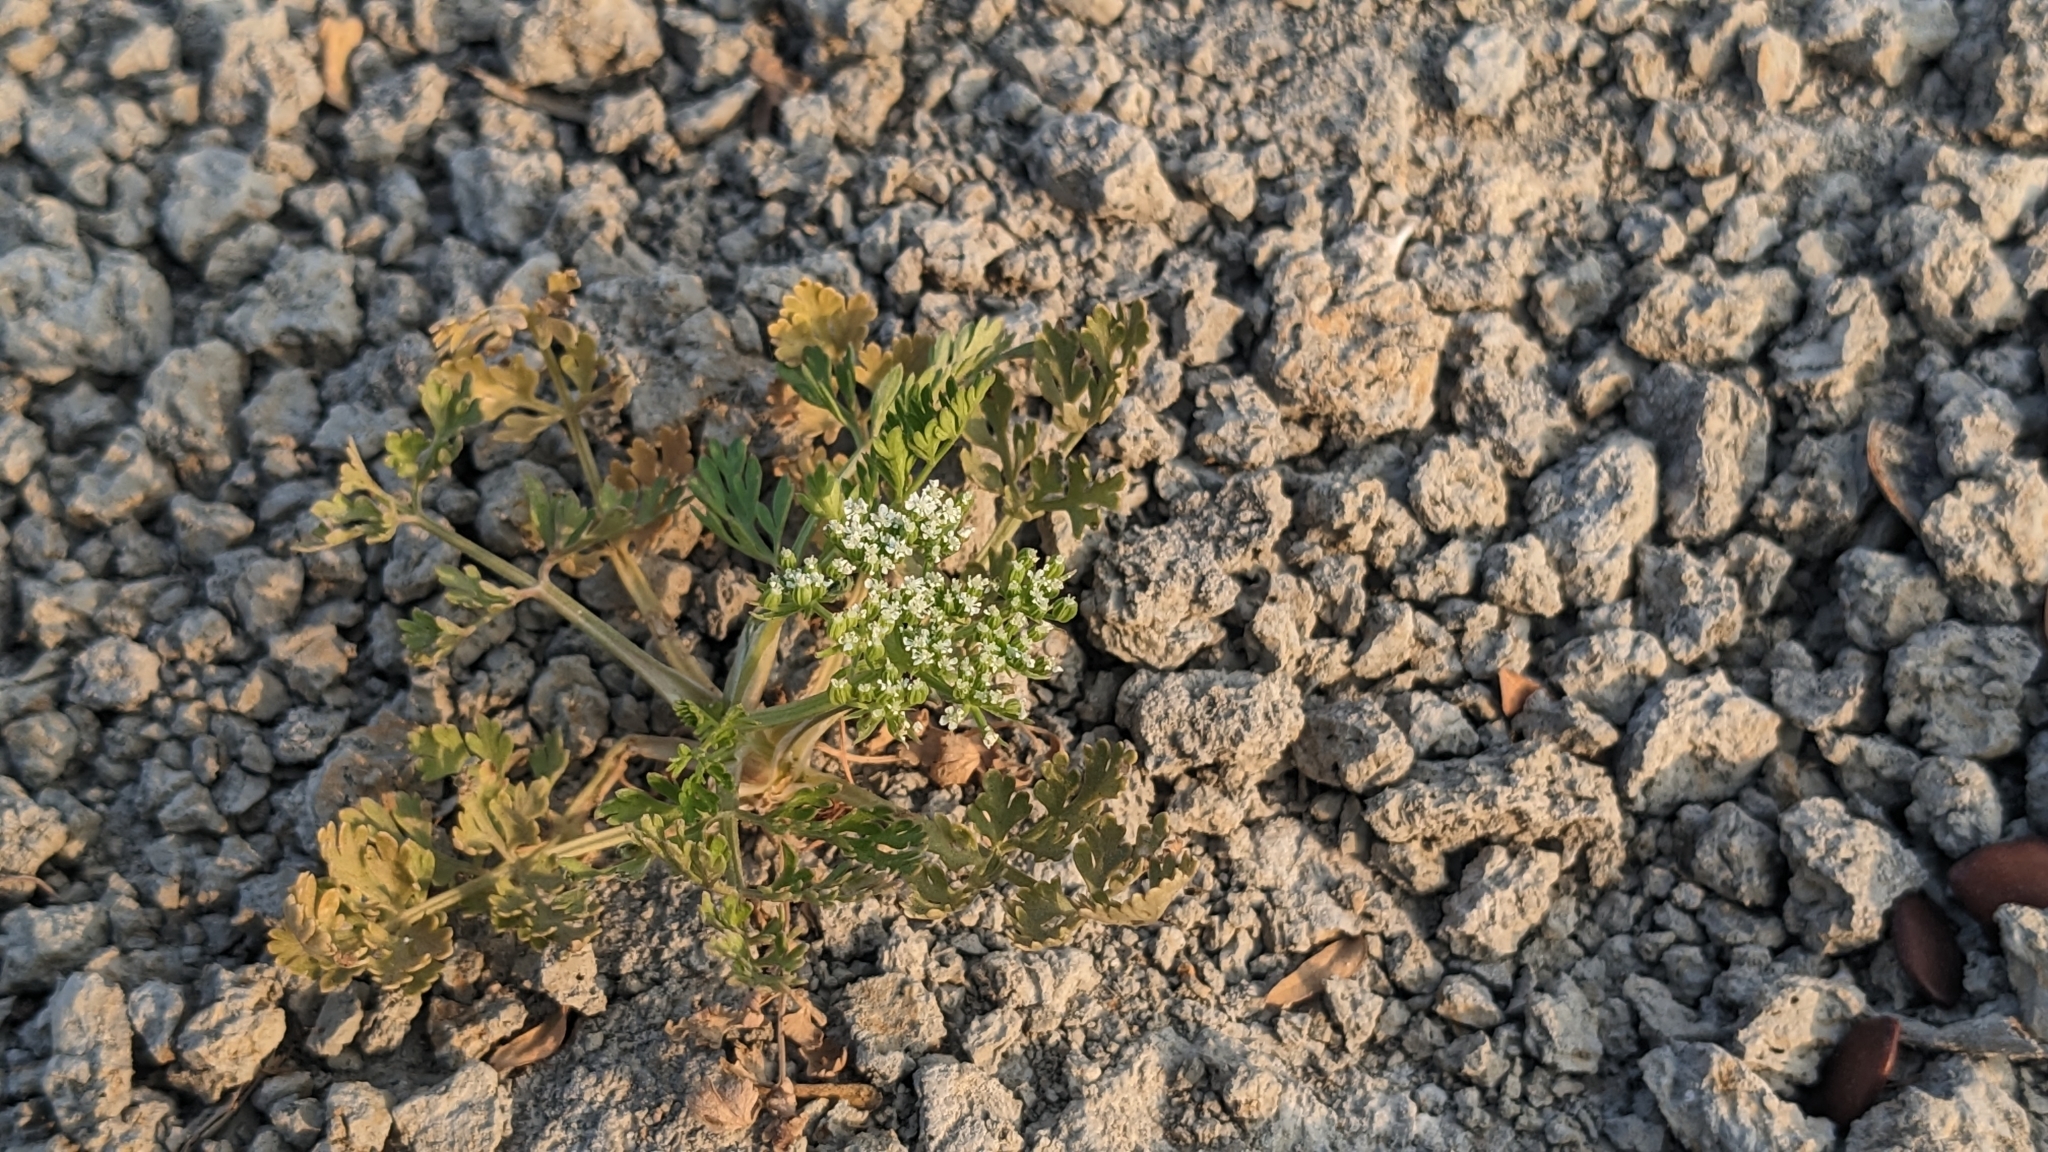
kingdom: Plantae
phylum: Tracheophyta
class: Magnoliopsida
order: Apiales
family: Apiaceae
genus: Cnidium
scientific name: Cnidium monnieri
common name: Monnier's snowparsley
